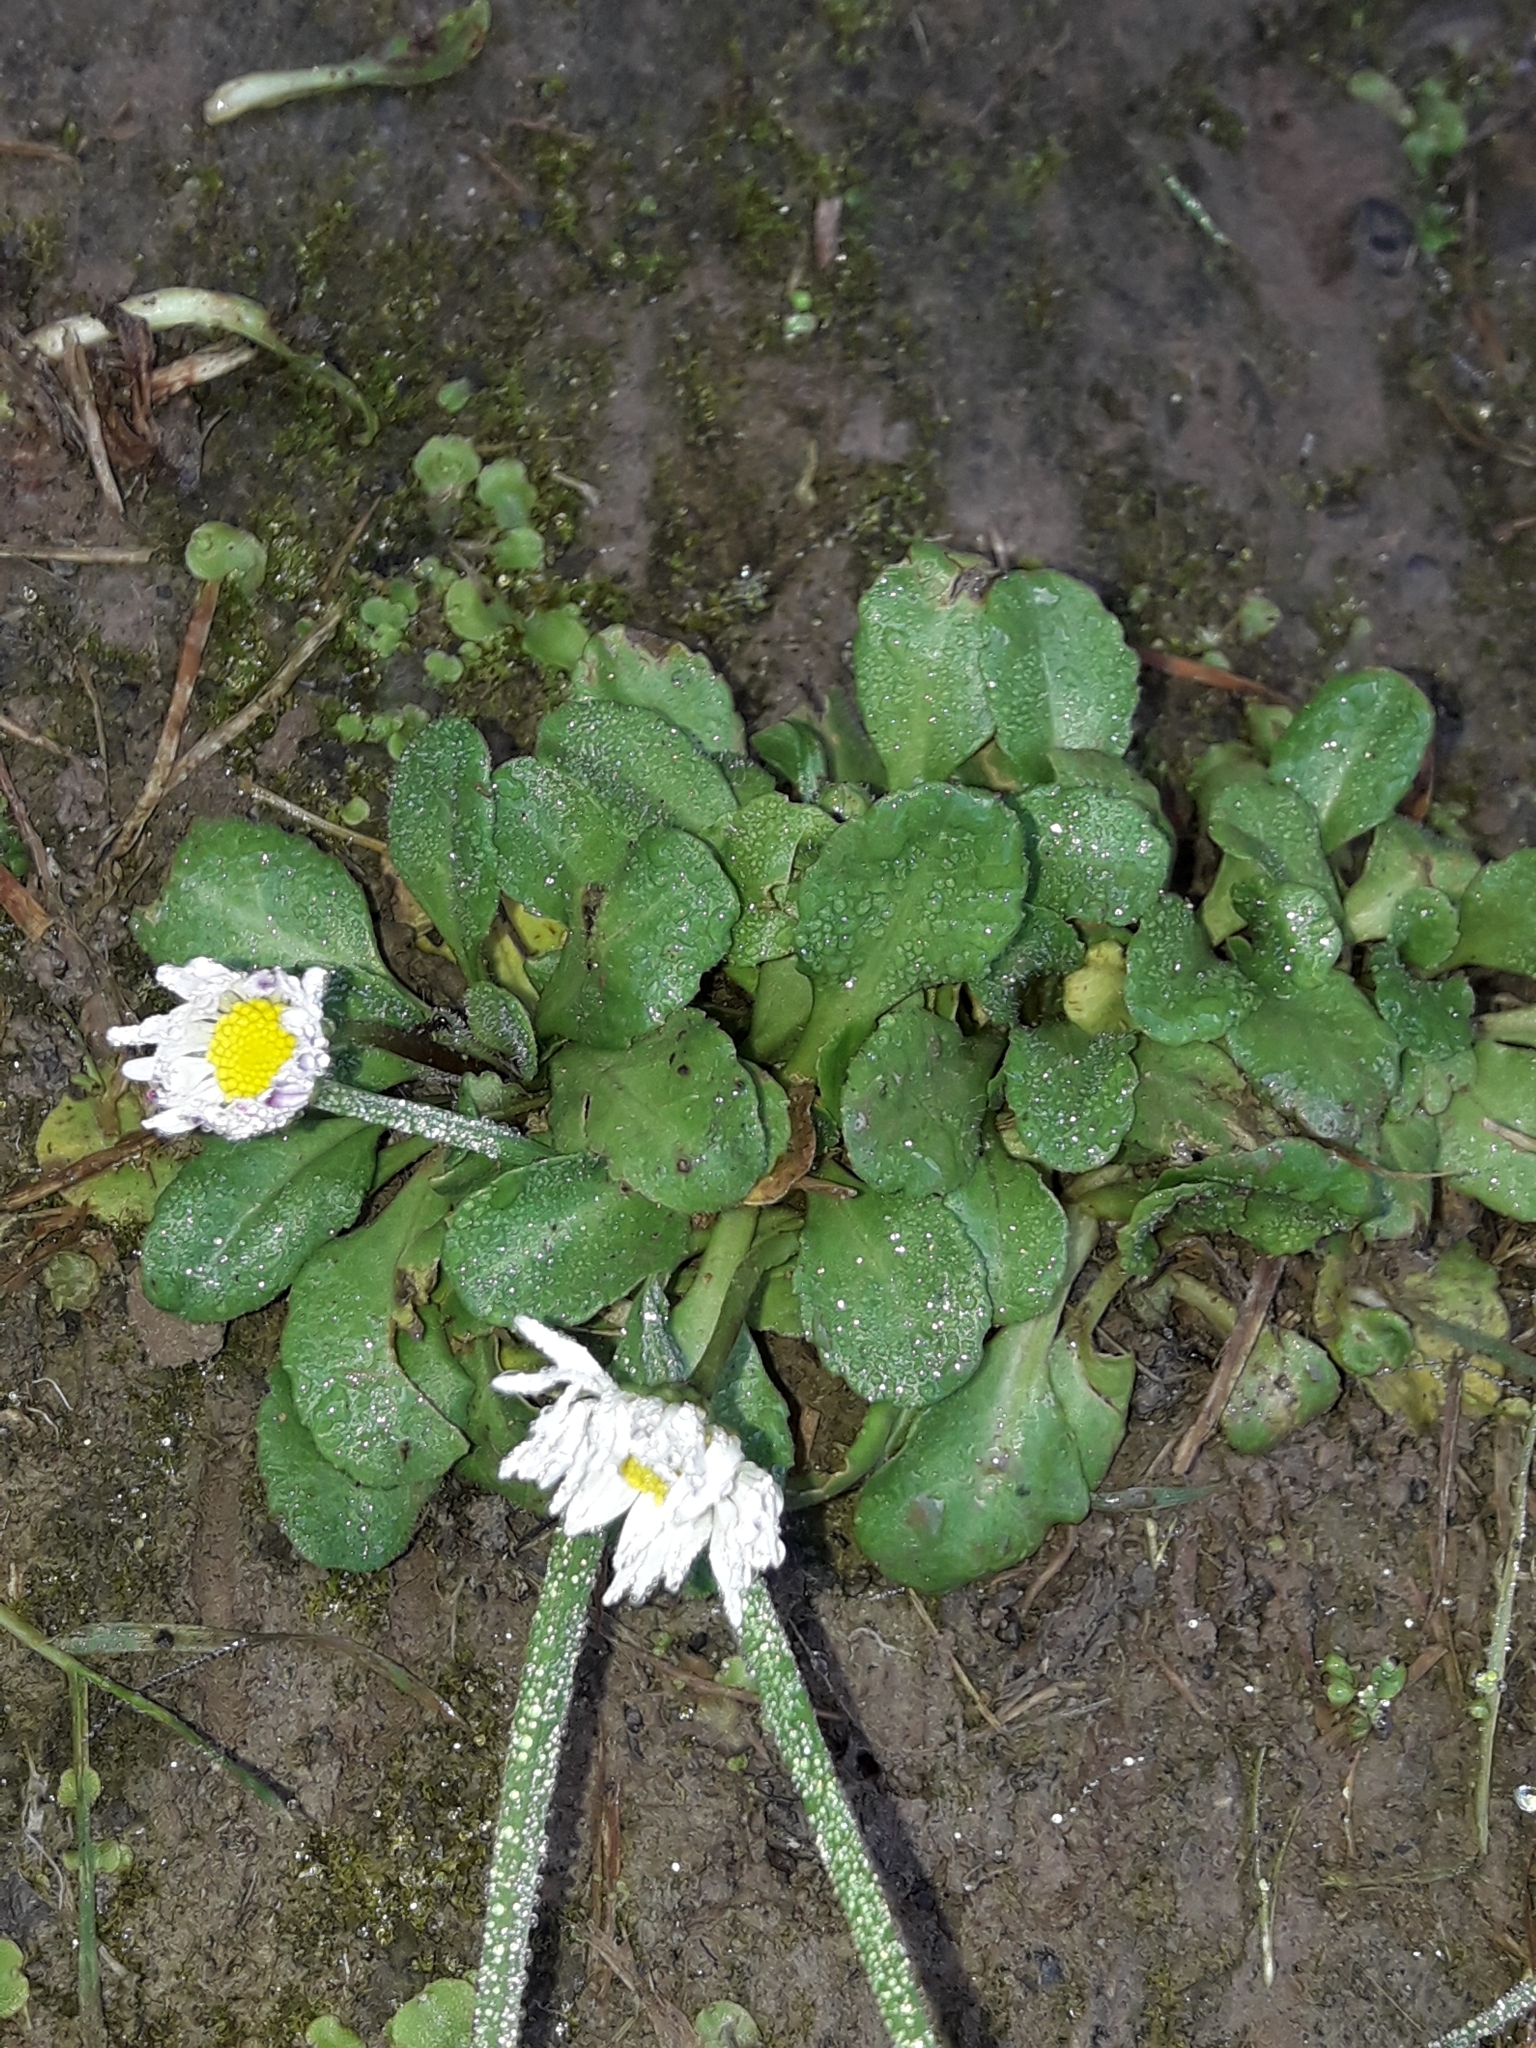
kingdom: Plantae
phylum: Tracheophyta
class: Magnoliopsida
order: Asterales
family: Asteraceae
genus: Bellis
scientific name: Bellis perennis
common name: Lawndaisy
